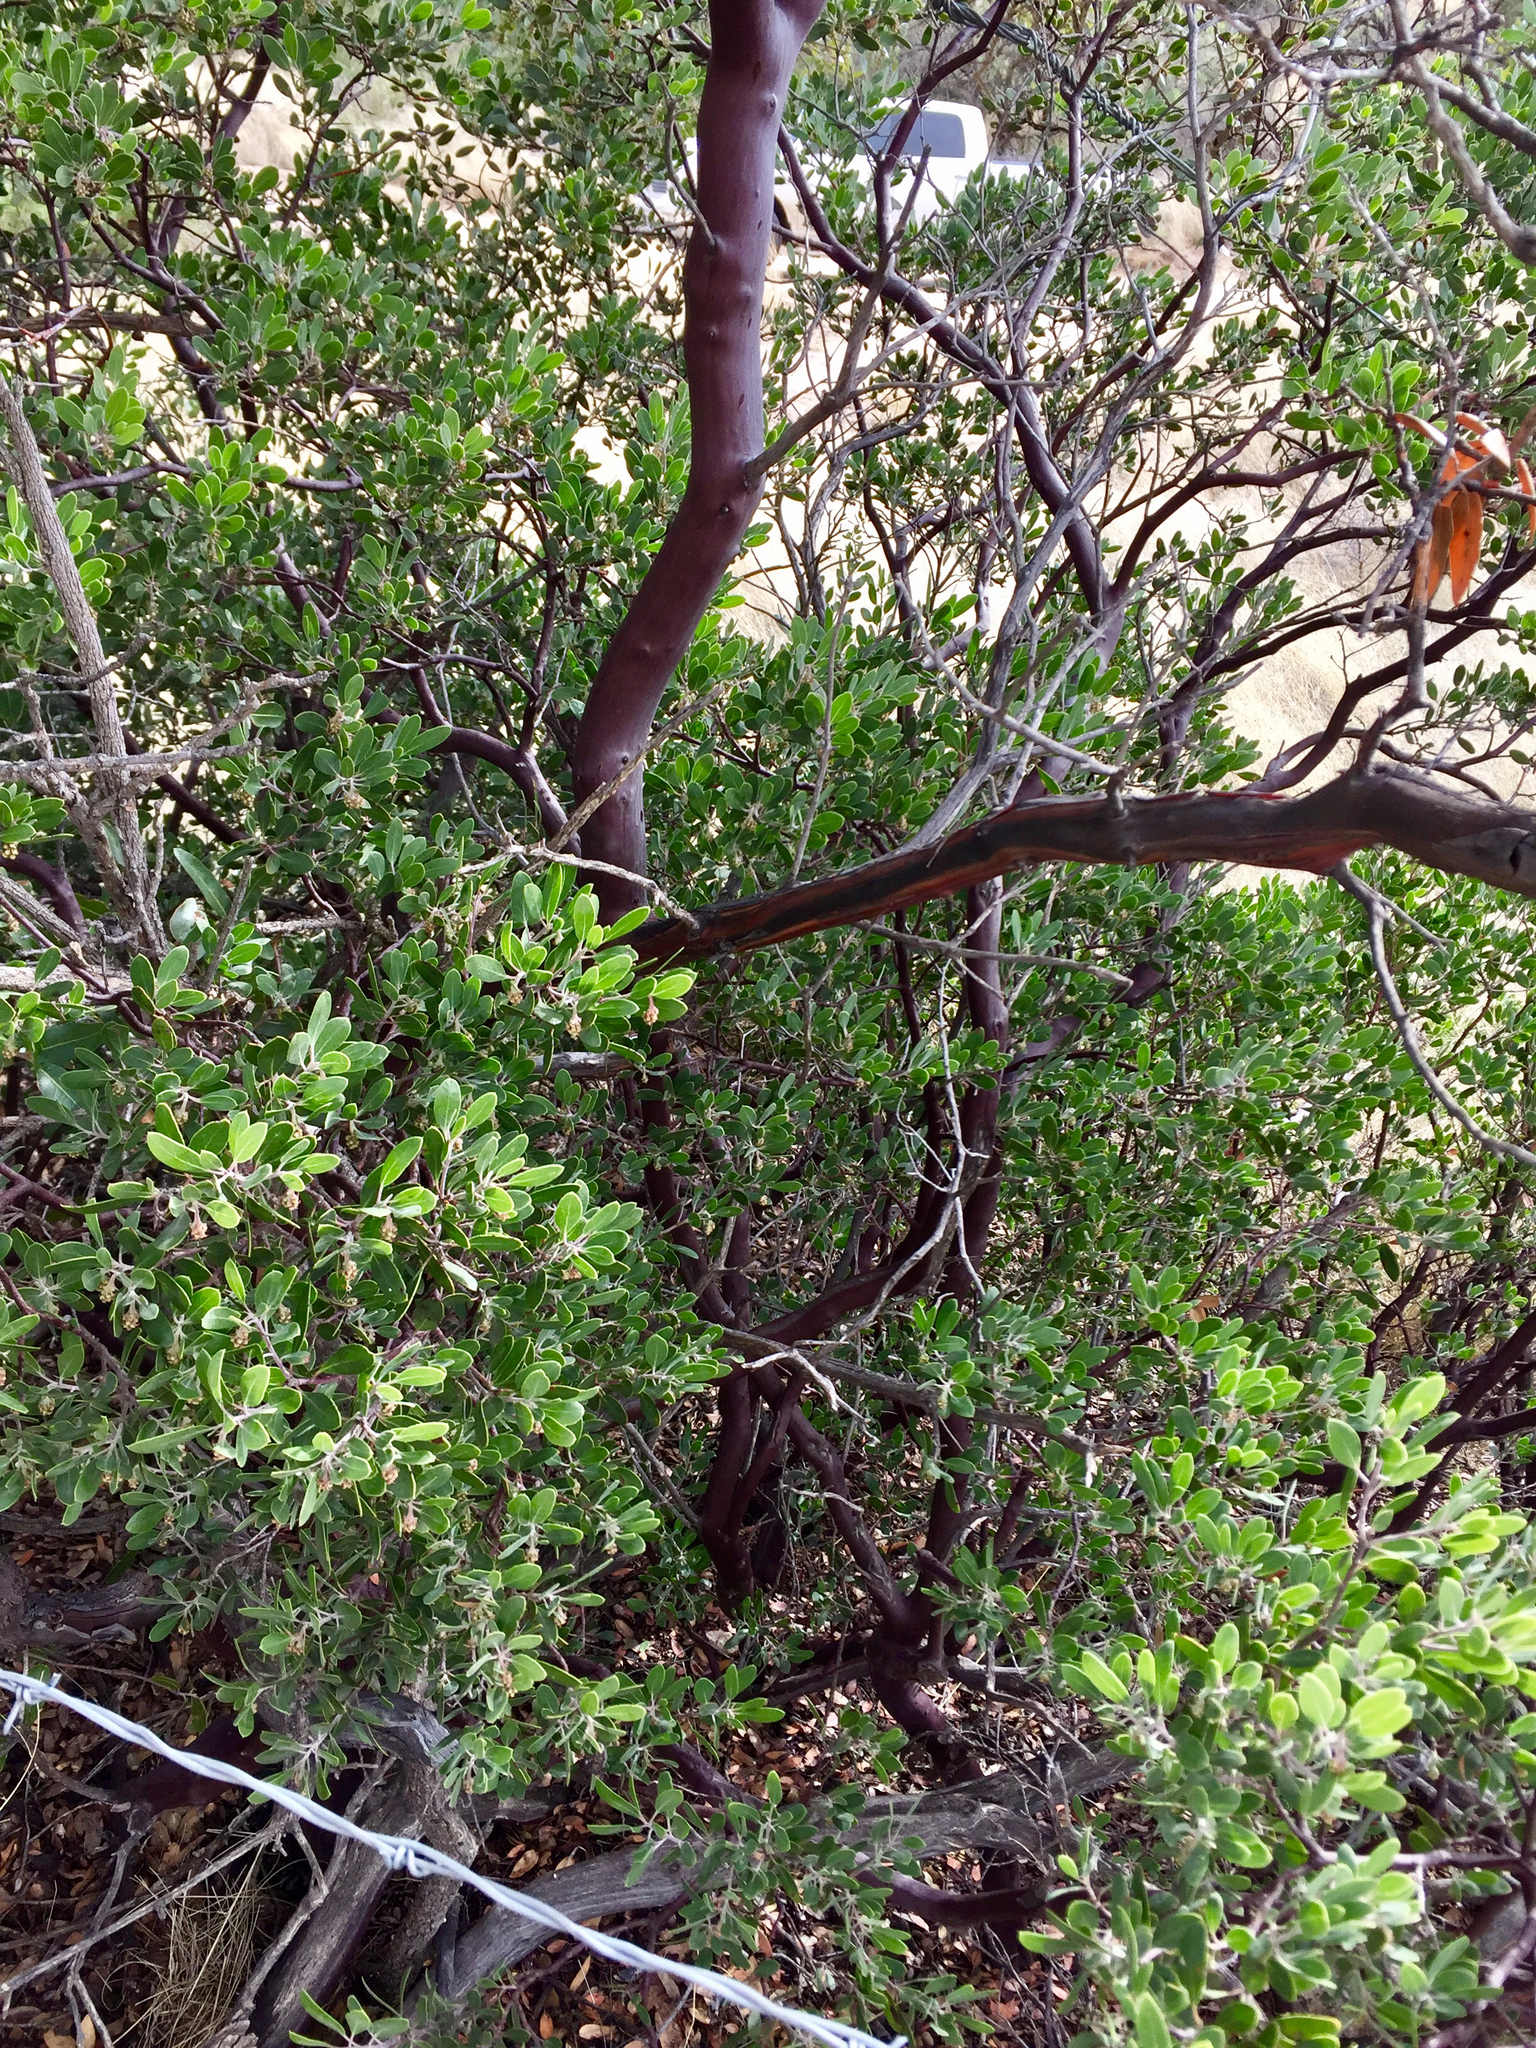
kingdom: Plantae
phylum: Tracheophyta
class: Magnoliopsida
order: Ericales
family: Ericaceae
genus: Arctostaphylos
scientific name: Arctostaphylos pungens
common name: Mexican manzanita
